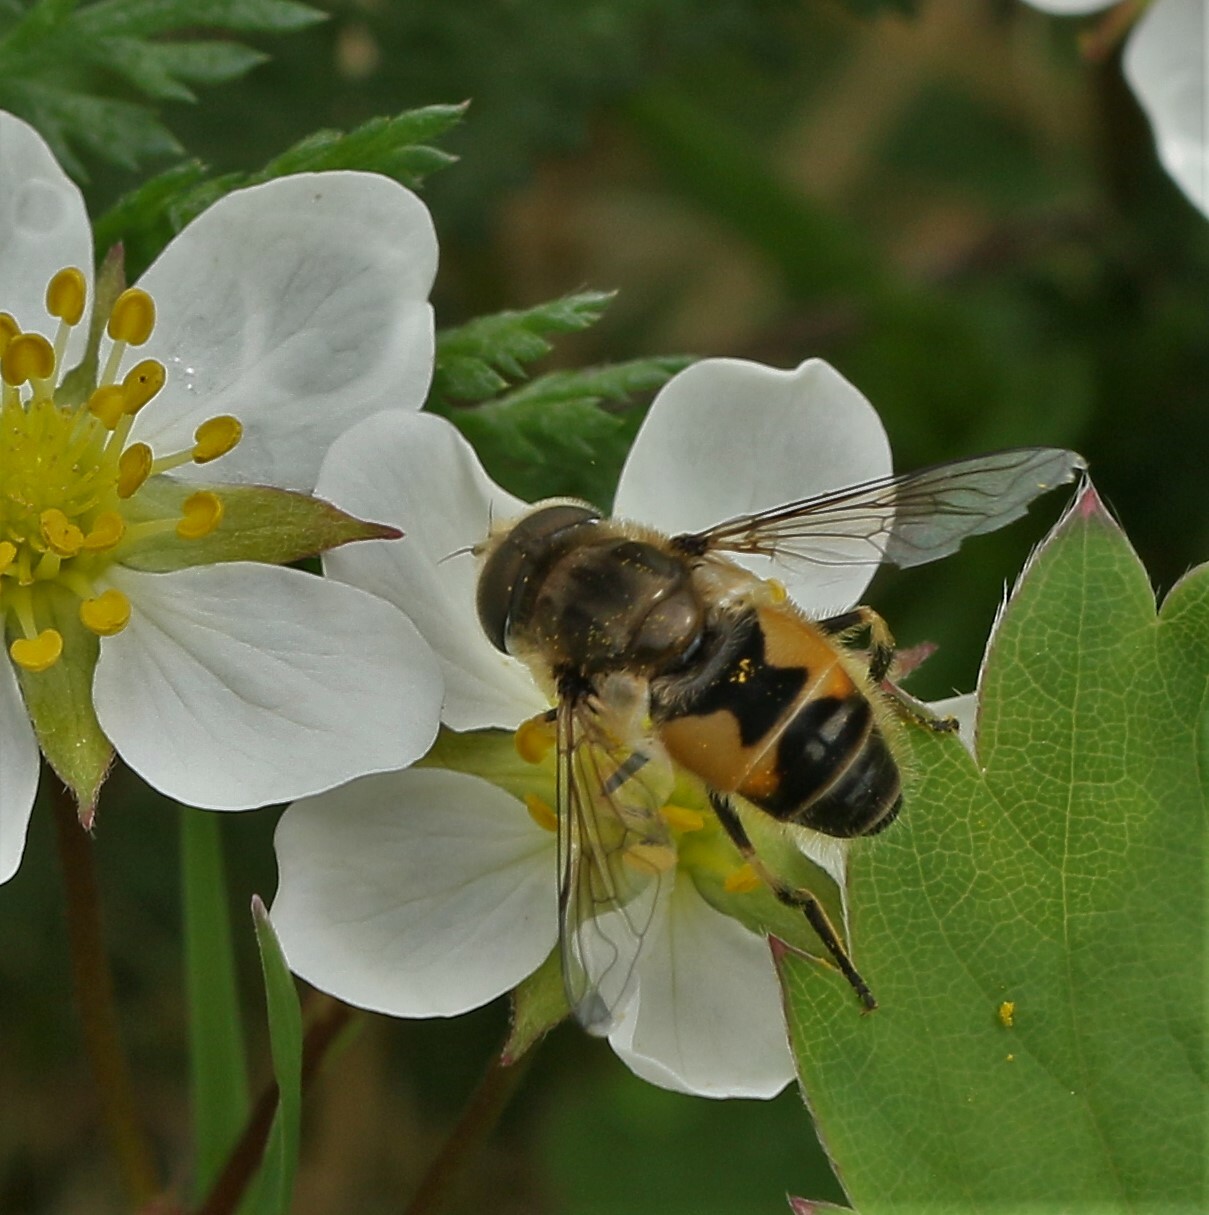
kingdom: Animalia
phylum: Arthropoda
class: Insecta
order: Diptera
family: Syrphidae
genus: Eristalis
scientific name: Eristalis arbustorum
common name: Hover fly
